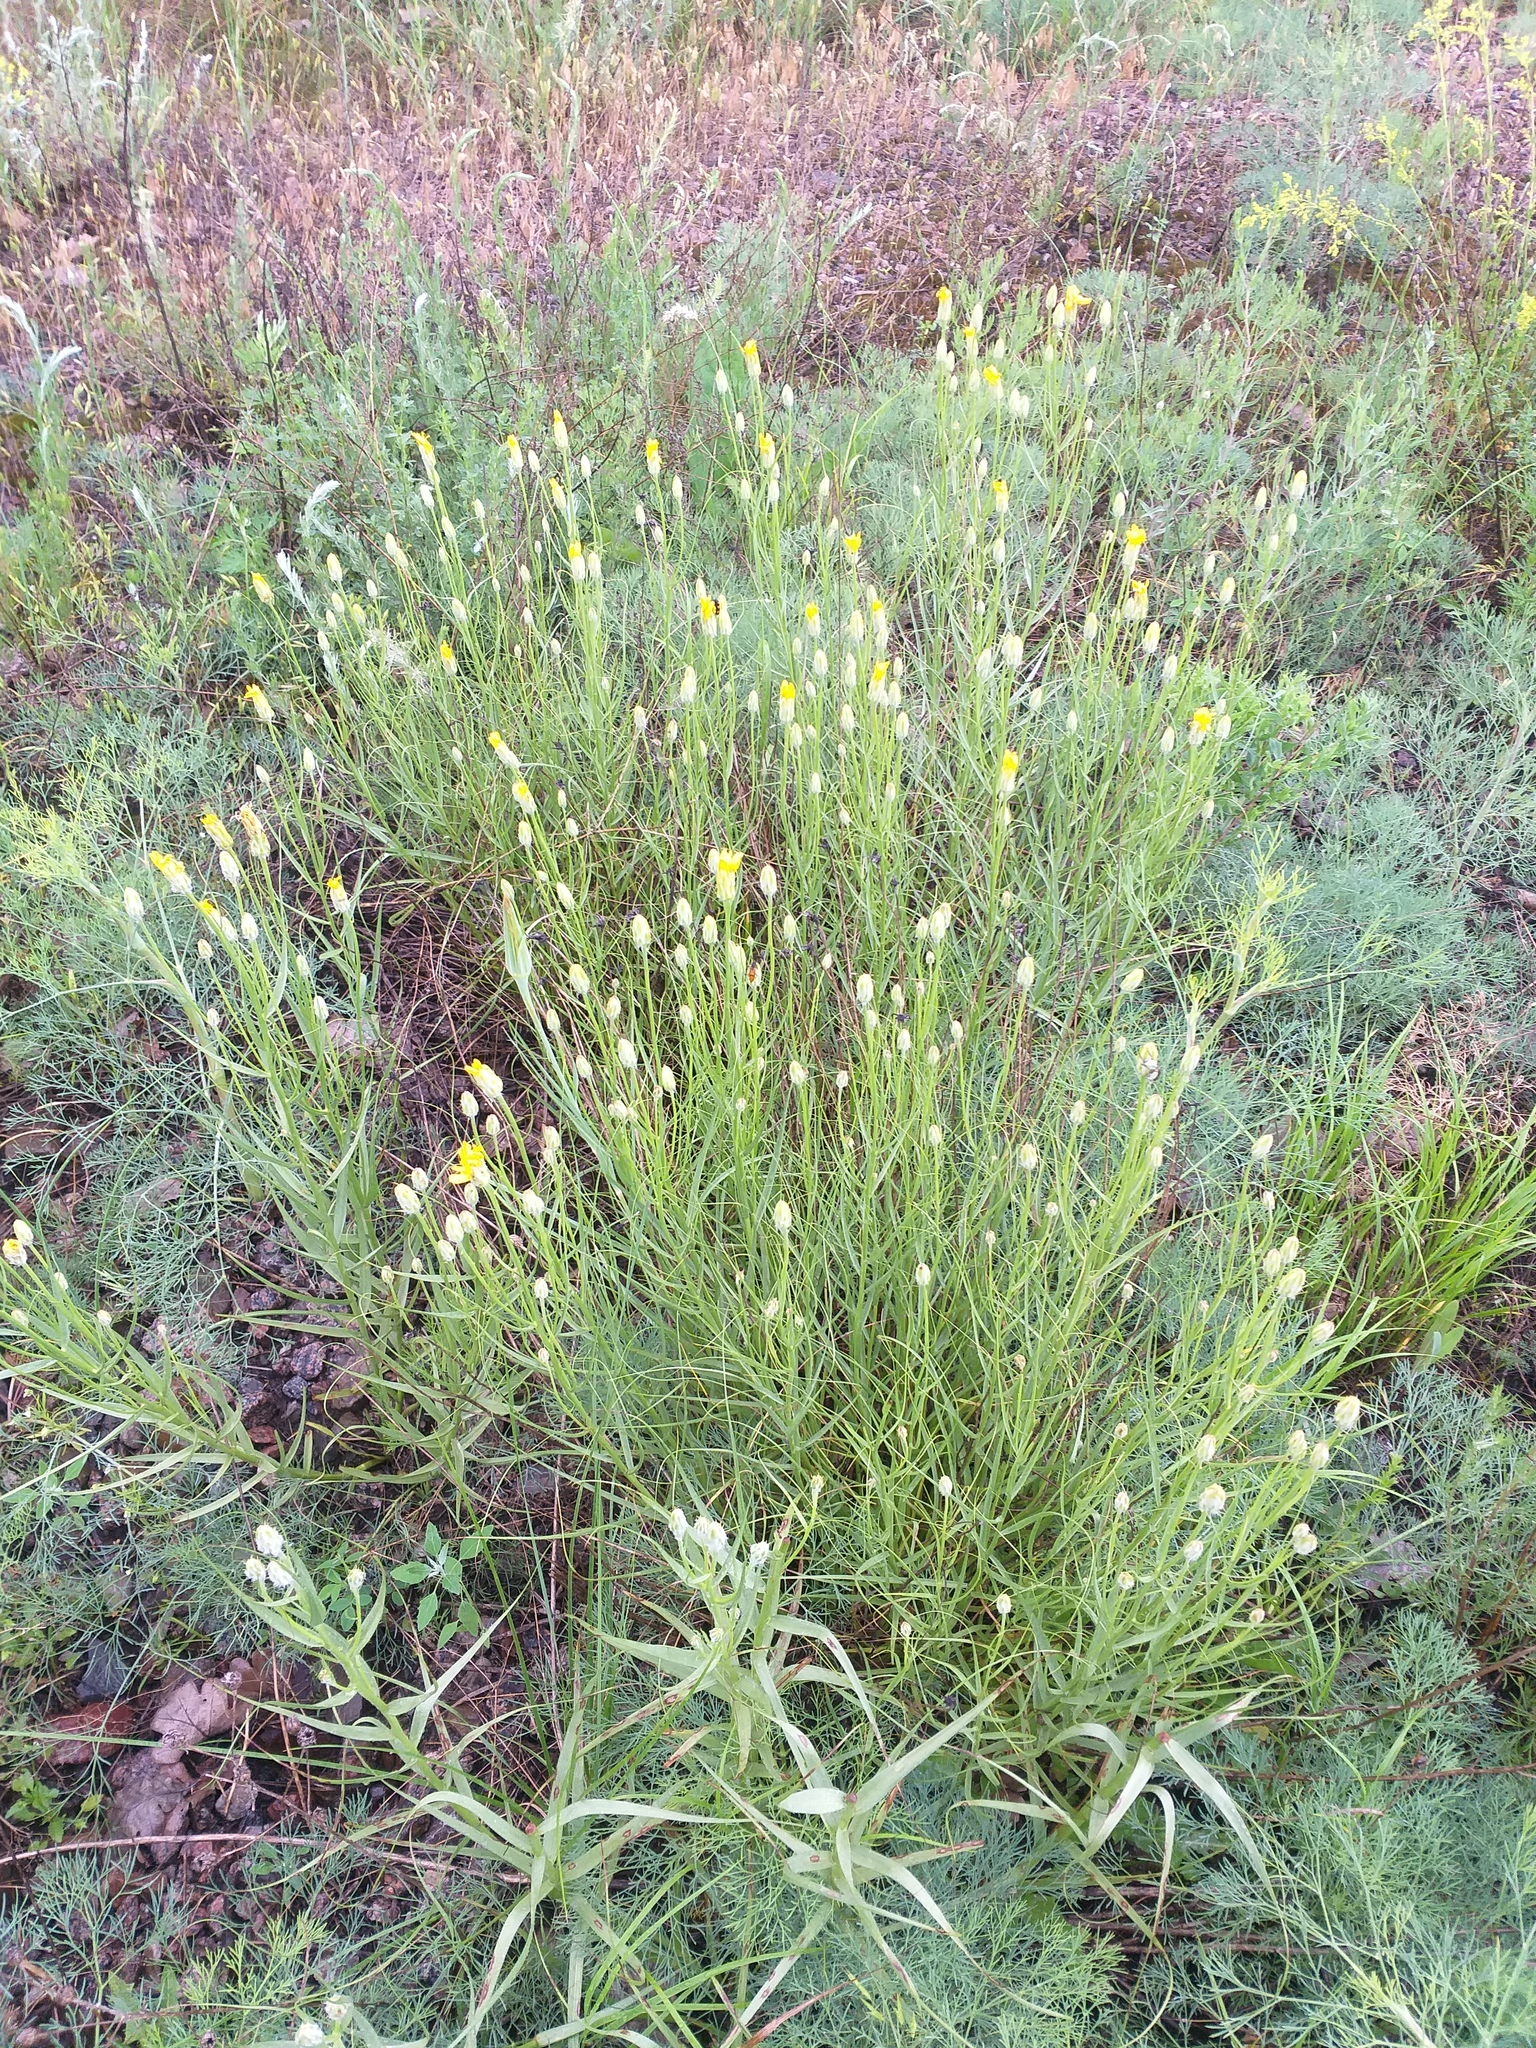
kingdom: Plantae
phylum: Tracheophyta
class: Magnoliopsida
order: Asterales
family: Asteraceae
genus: Gelasia
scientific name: Gelasia ensifolia
